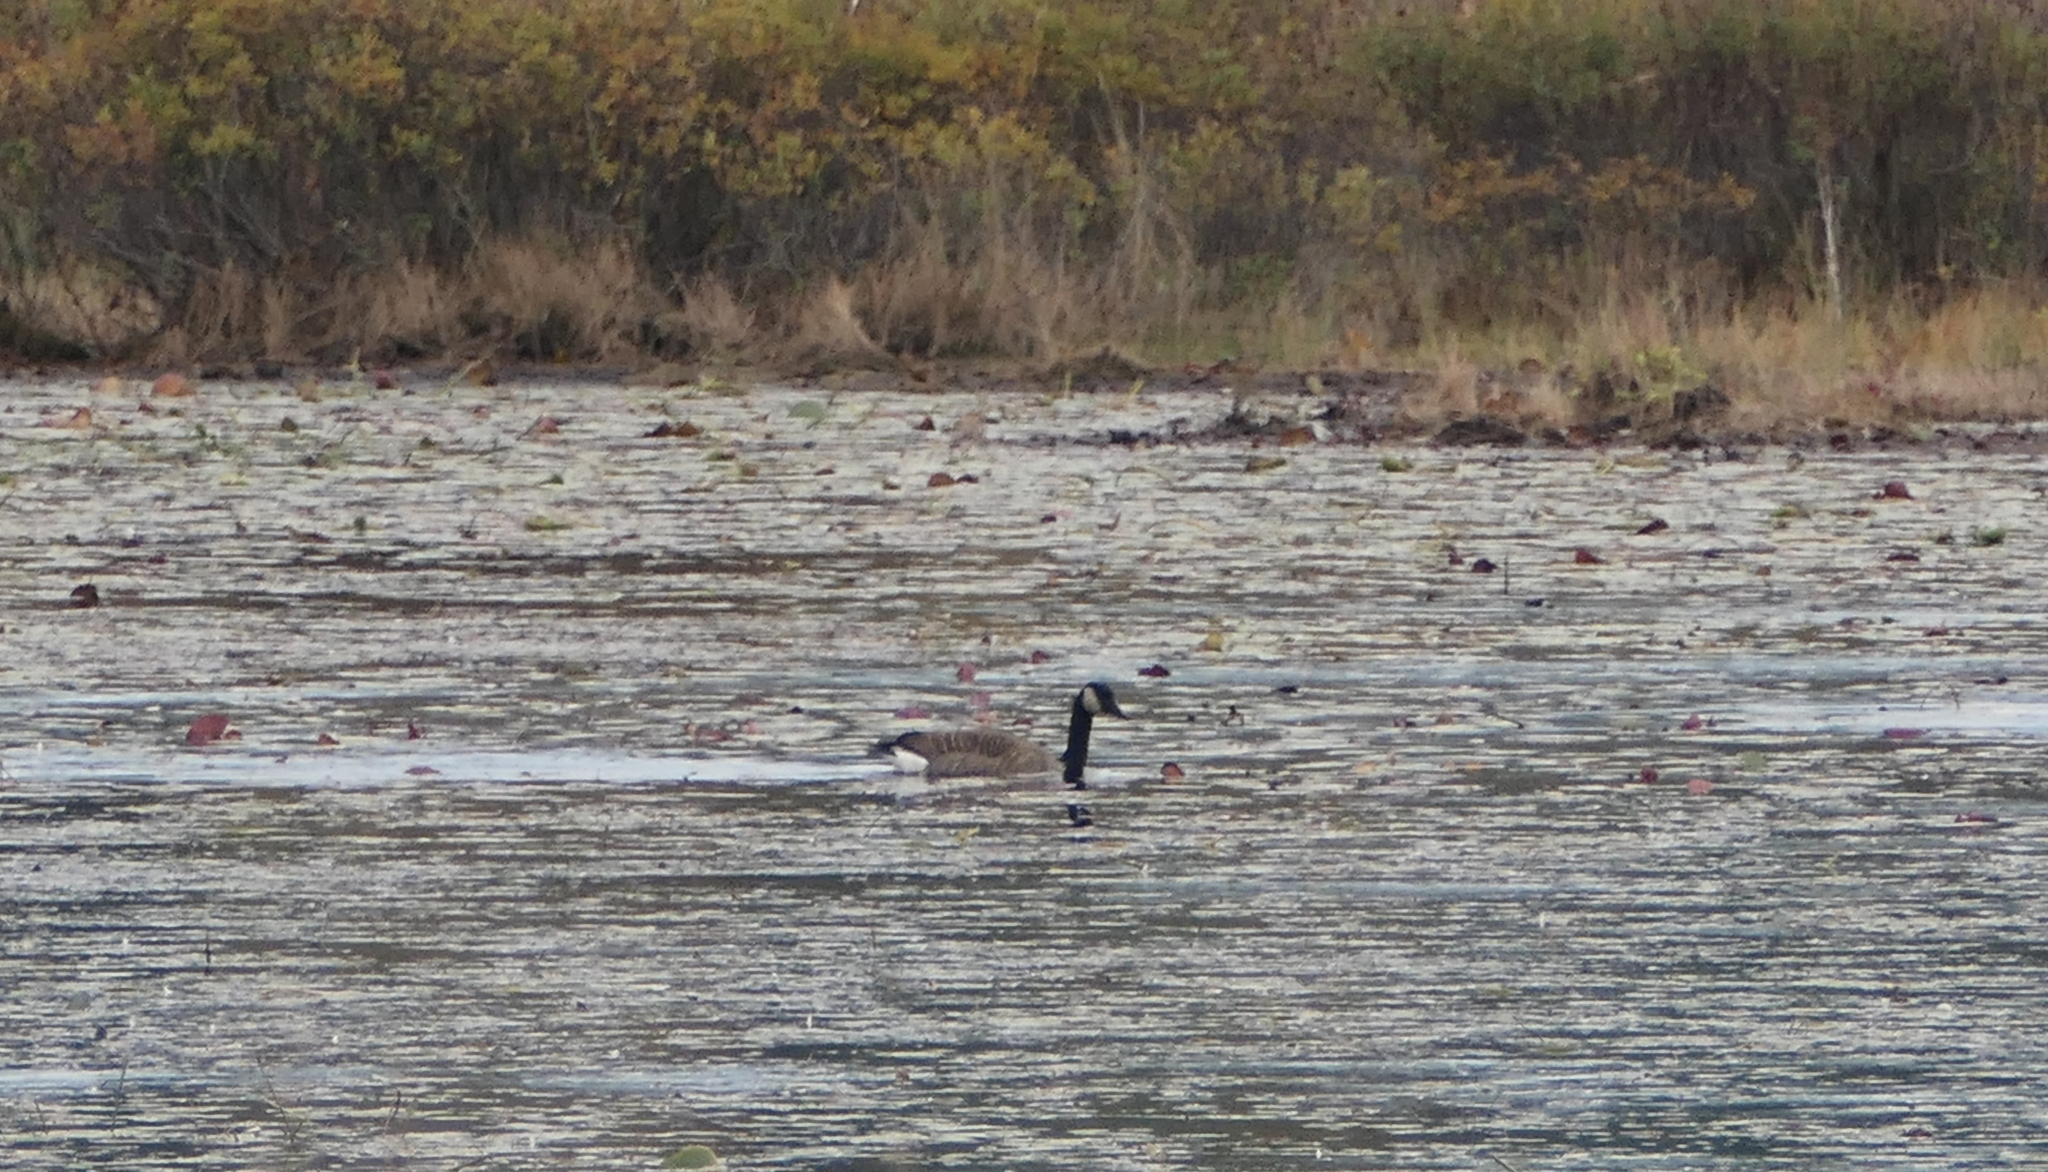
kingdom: Animalia
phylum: Chordata
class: Aves
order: Anseriformes
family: Anatidae
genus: Branta
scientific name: Branta canadensis
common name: Canada goose
